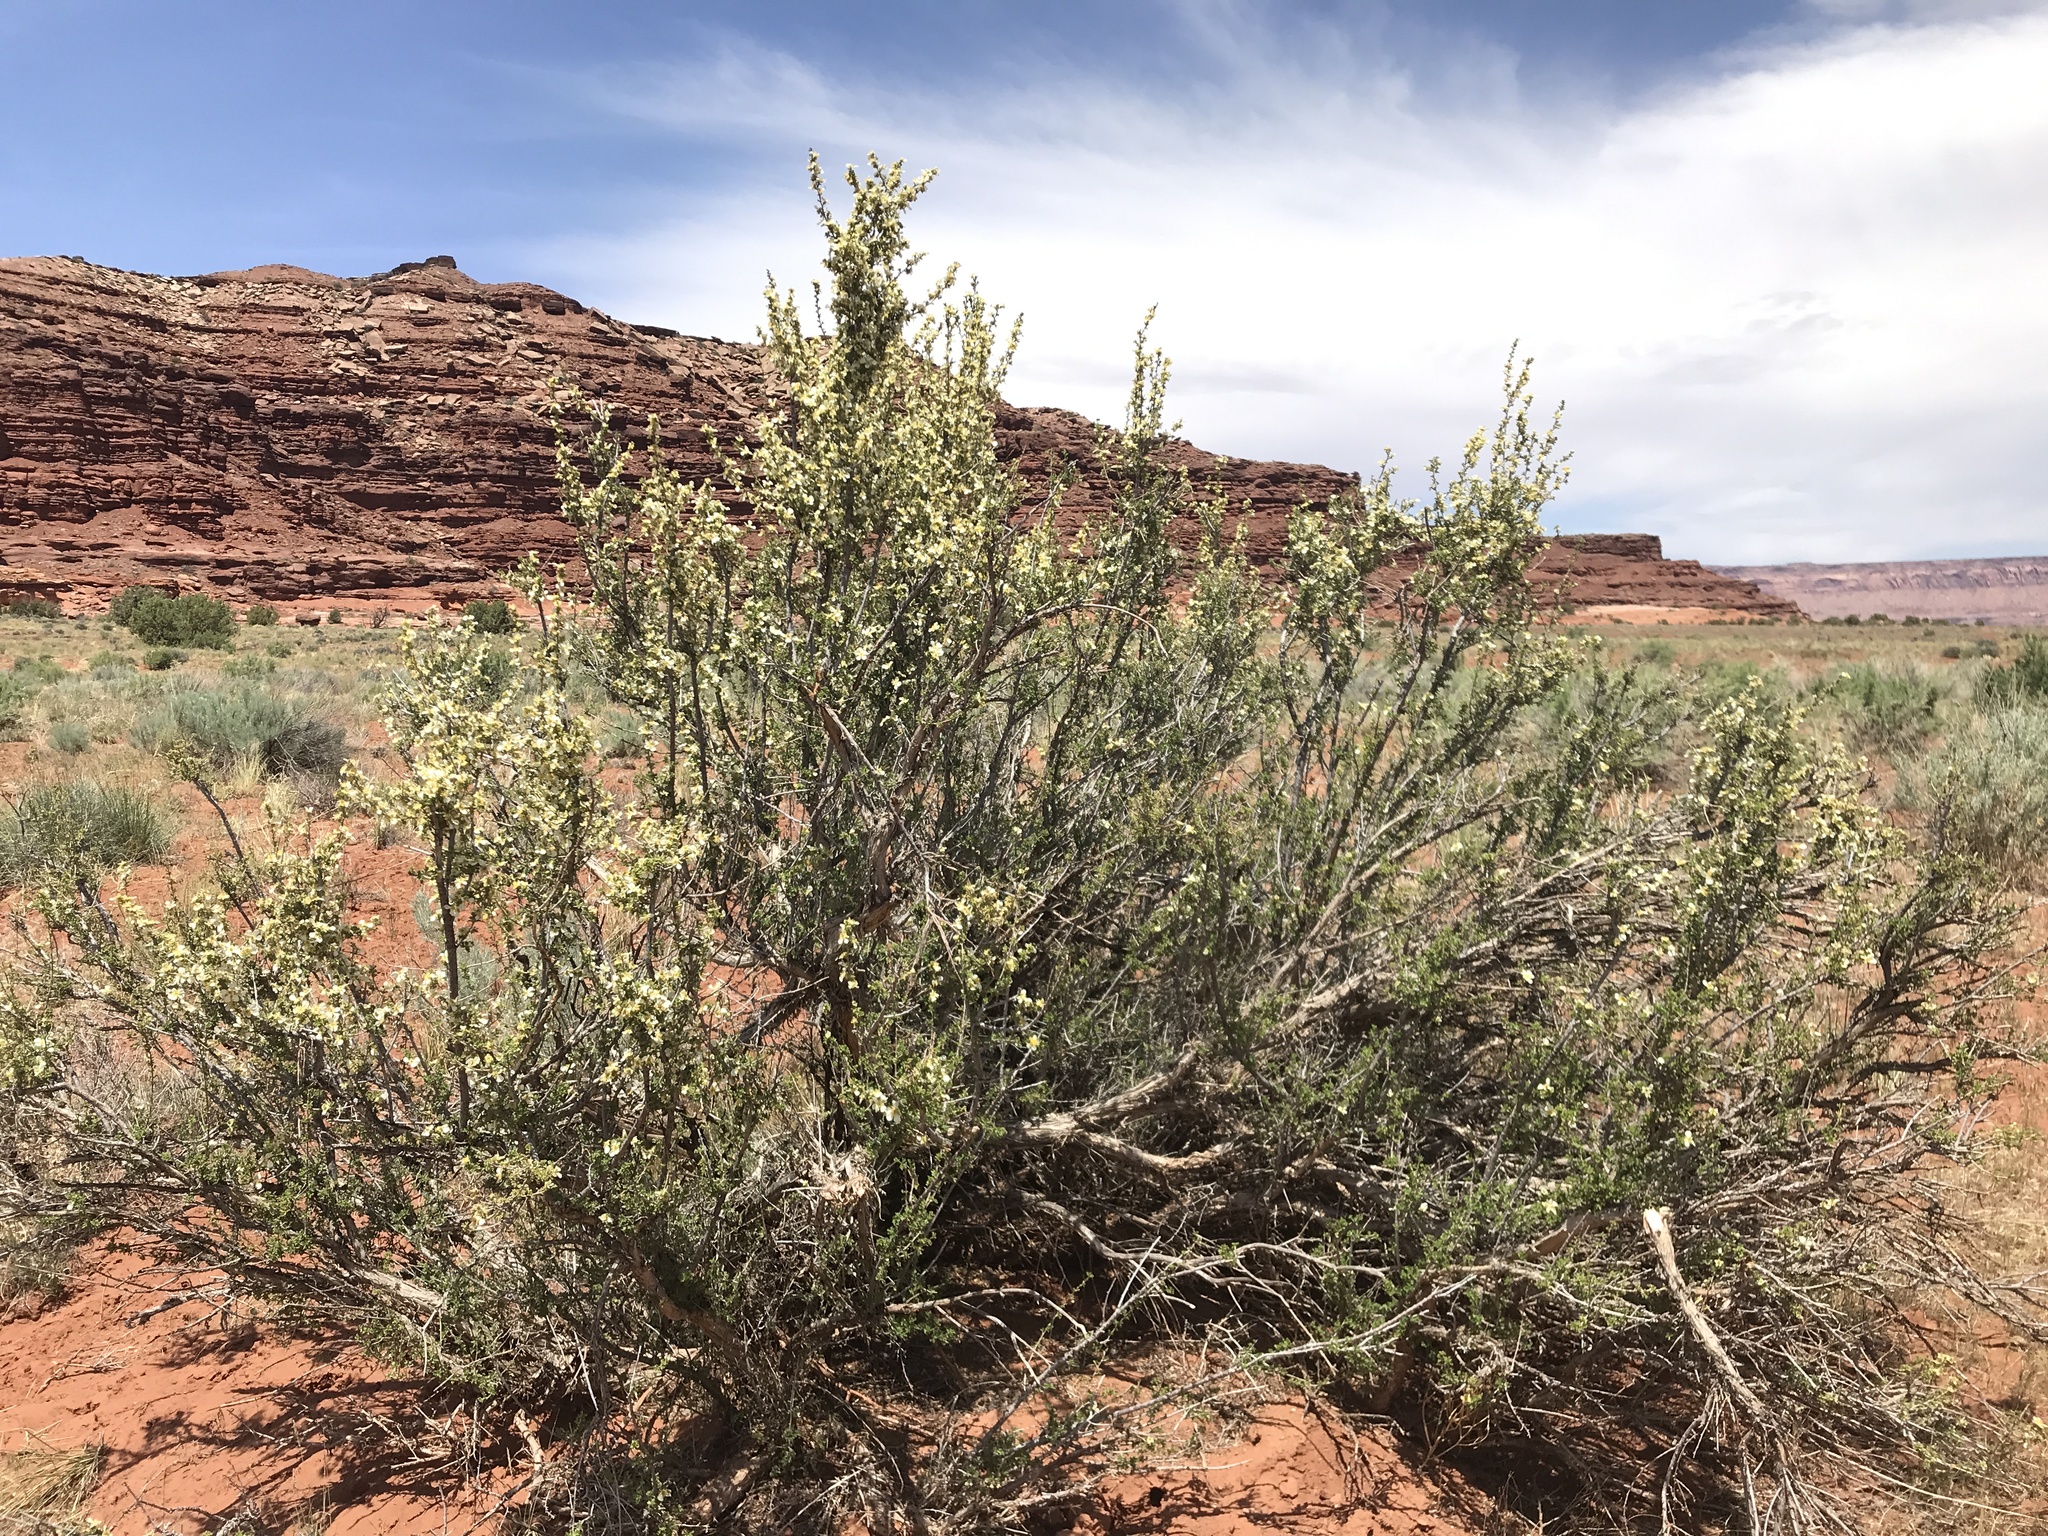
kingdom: Plantae
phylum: Tracheophyta
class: Magnoliopsida
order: Rosales
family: Rosaceae
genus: Purshia
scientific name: Purshia stansburiana
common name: Stansbury's cliffrose
